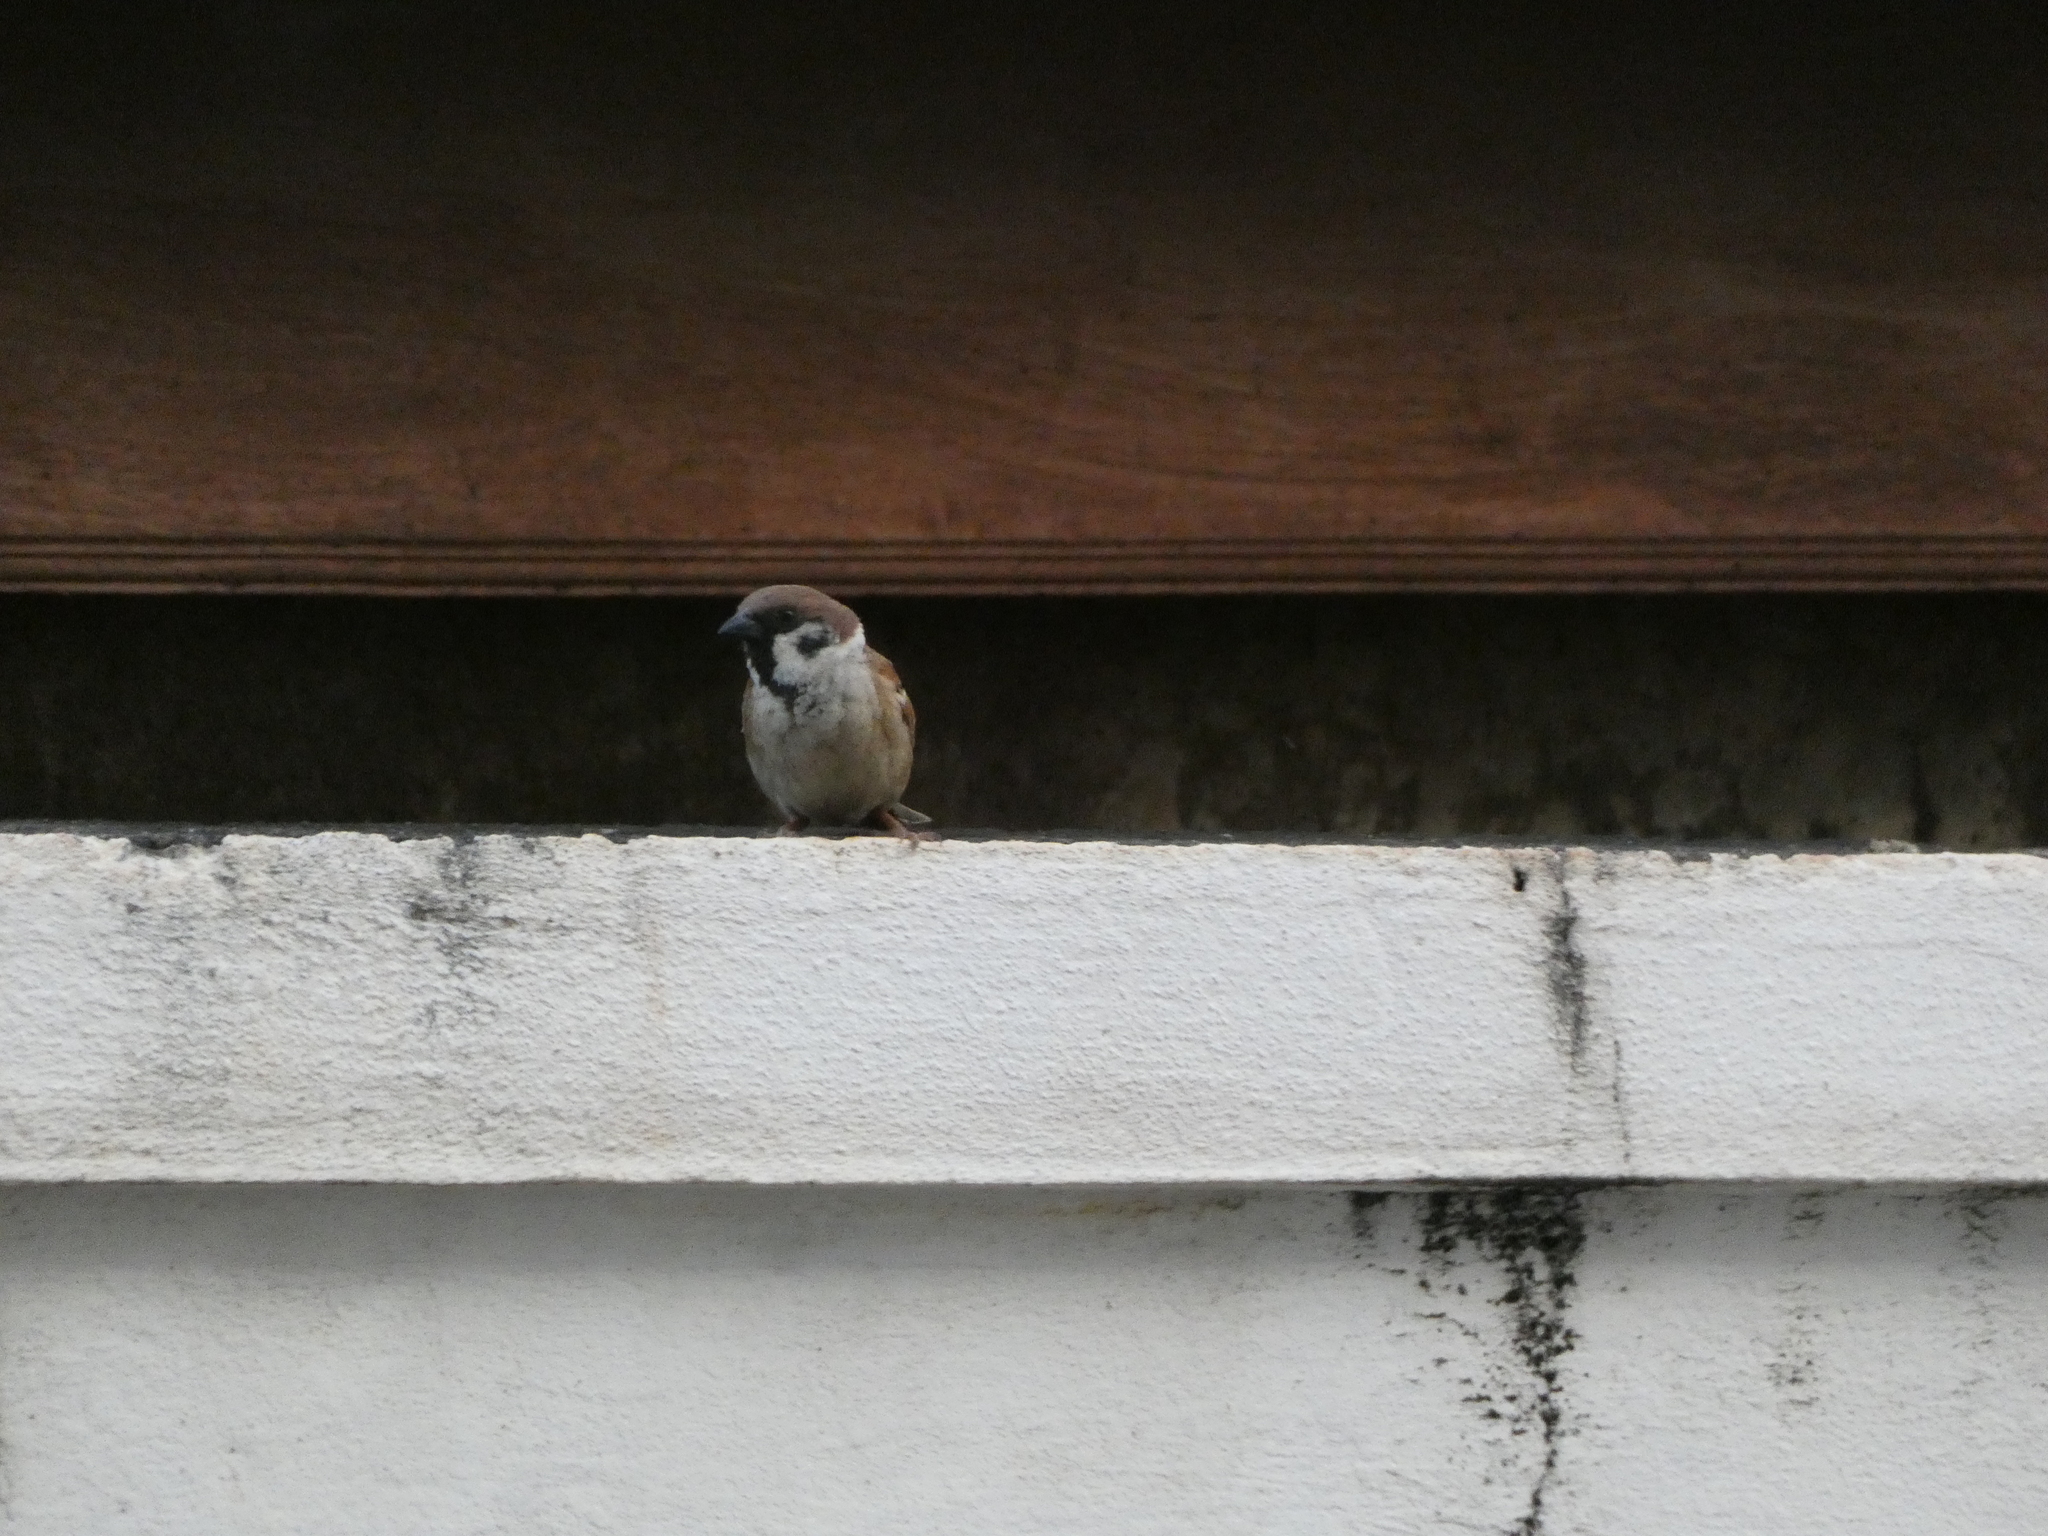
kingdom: Animalia
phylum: Chordata
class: Aves
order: Passeriformes
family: Passeridae
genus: Passer
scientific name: Passer montanus
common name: Eurasian tree sparrow
